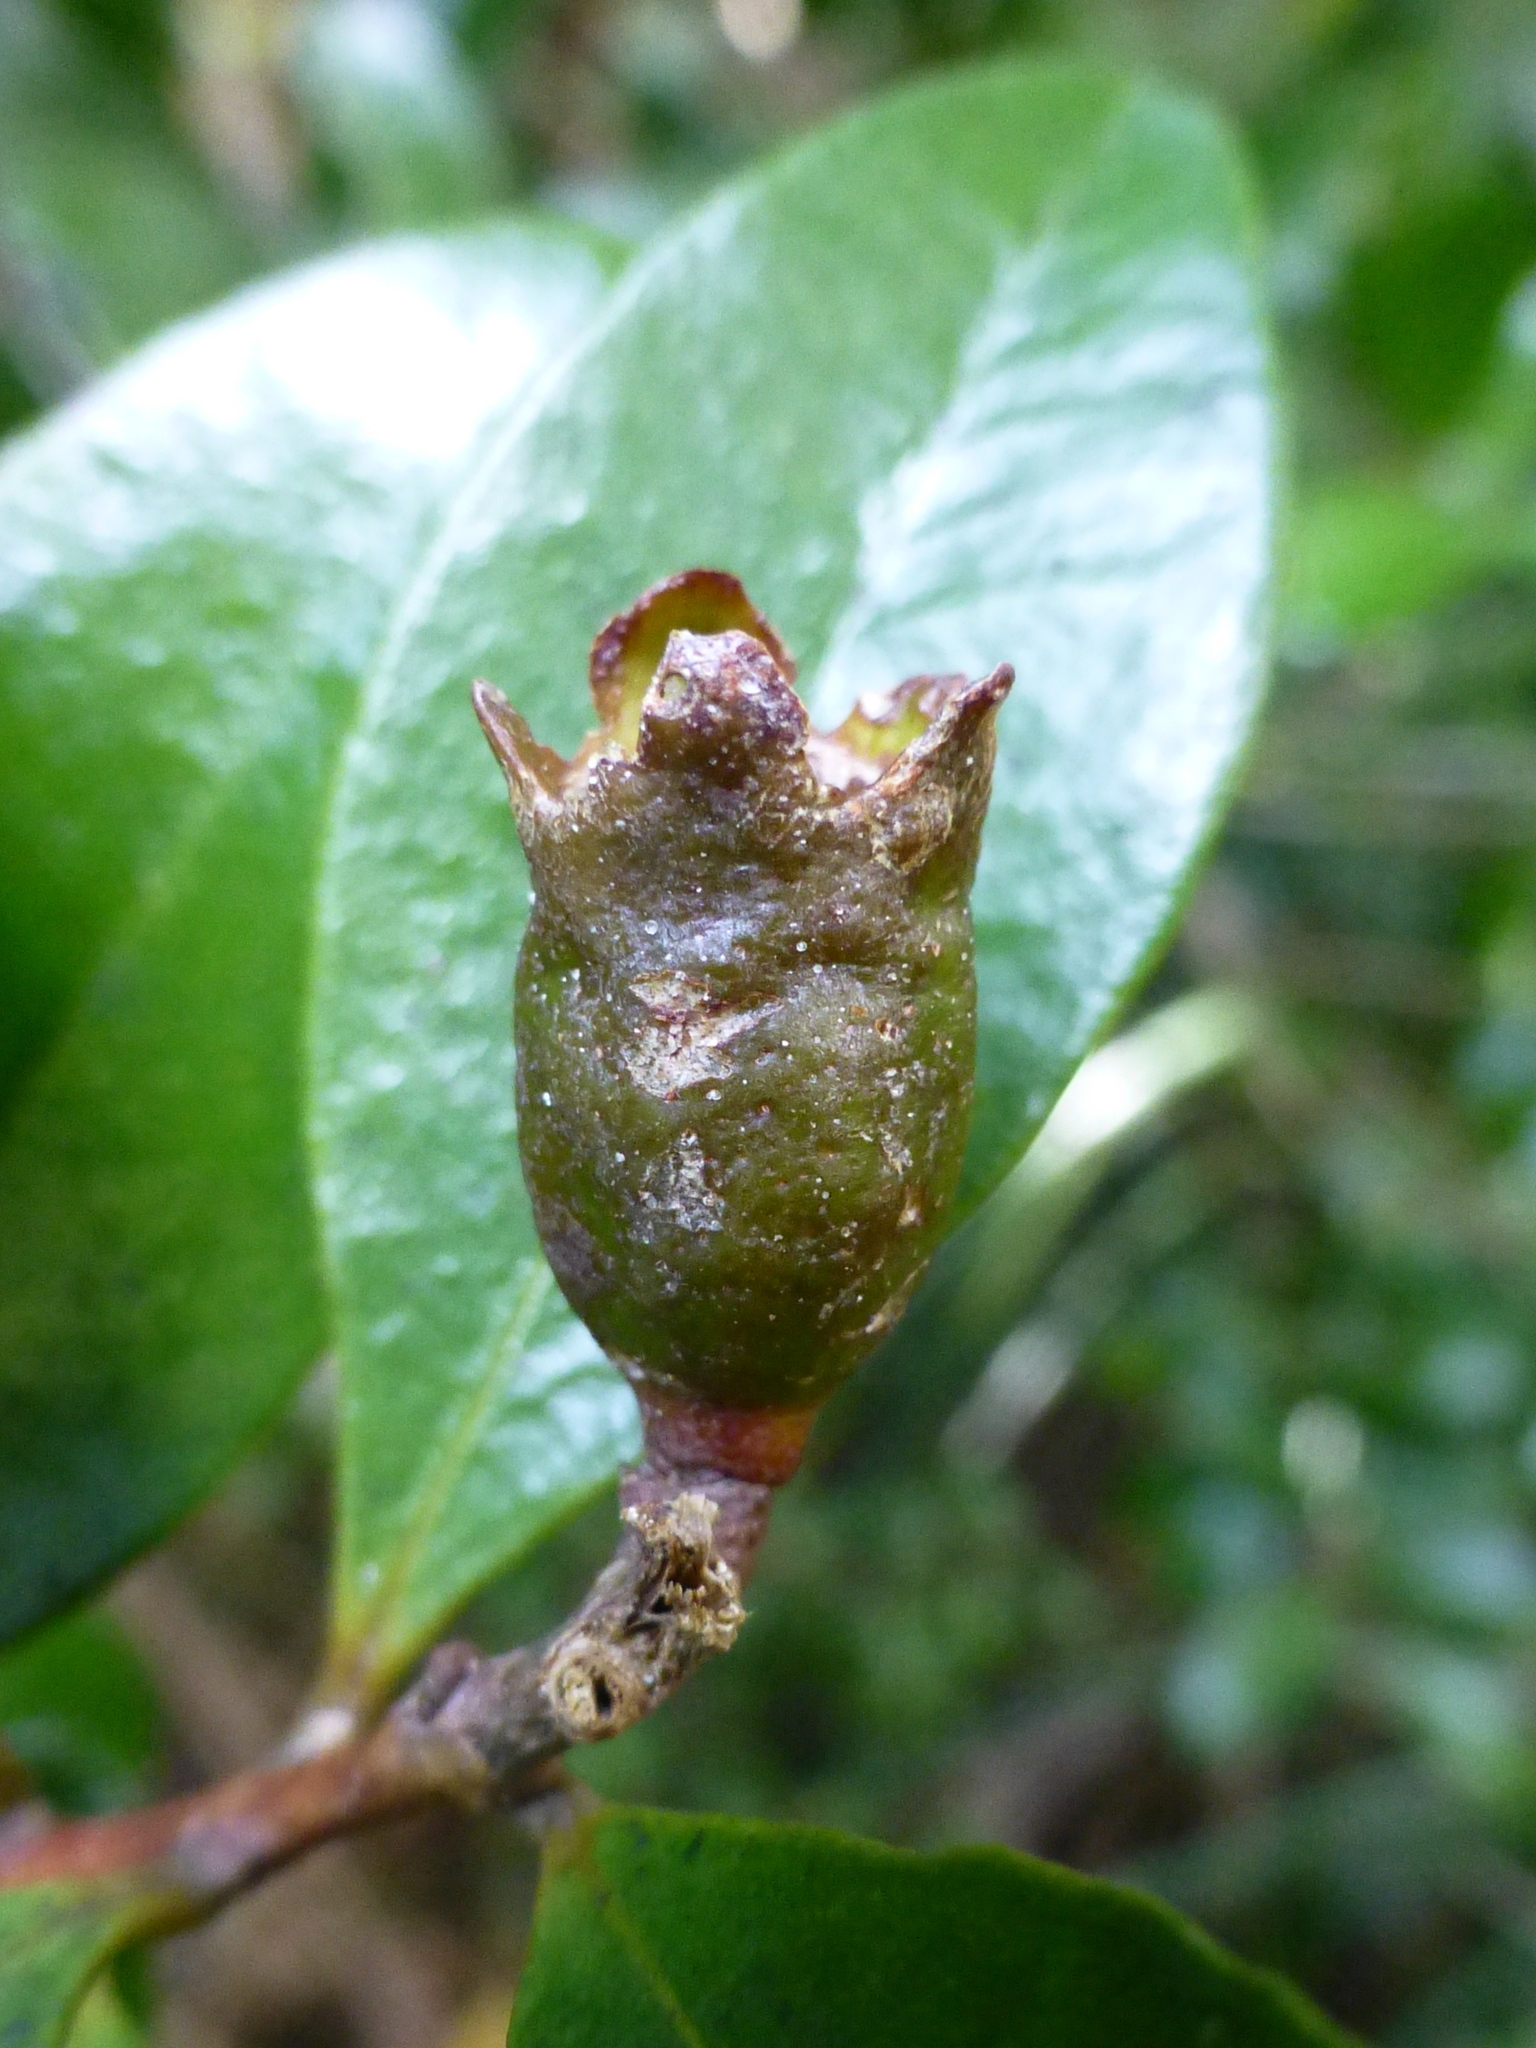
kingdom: Plantae
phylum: Tracheophyta
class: Magnoliopsida
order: Myrtales
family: Myrtaceae
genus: Metrosideros
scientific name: Metrosideros fulgens
